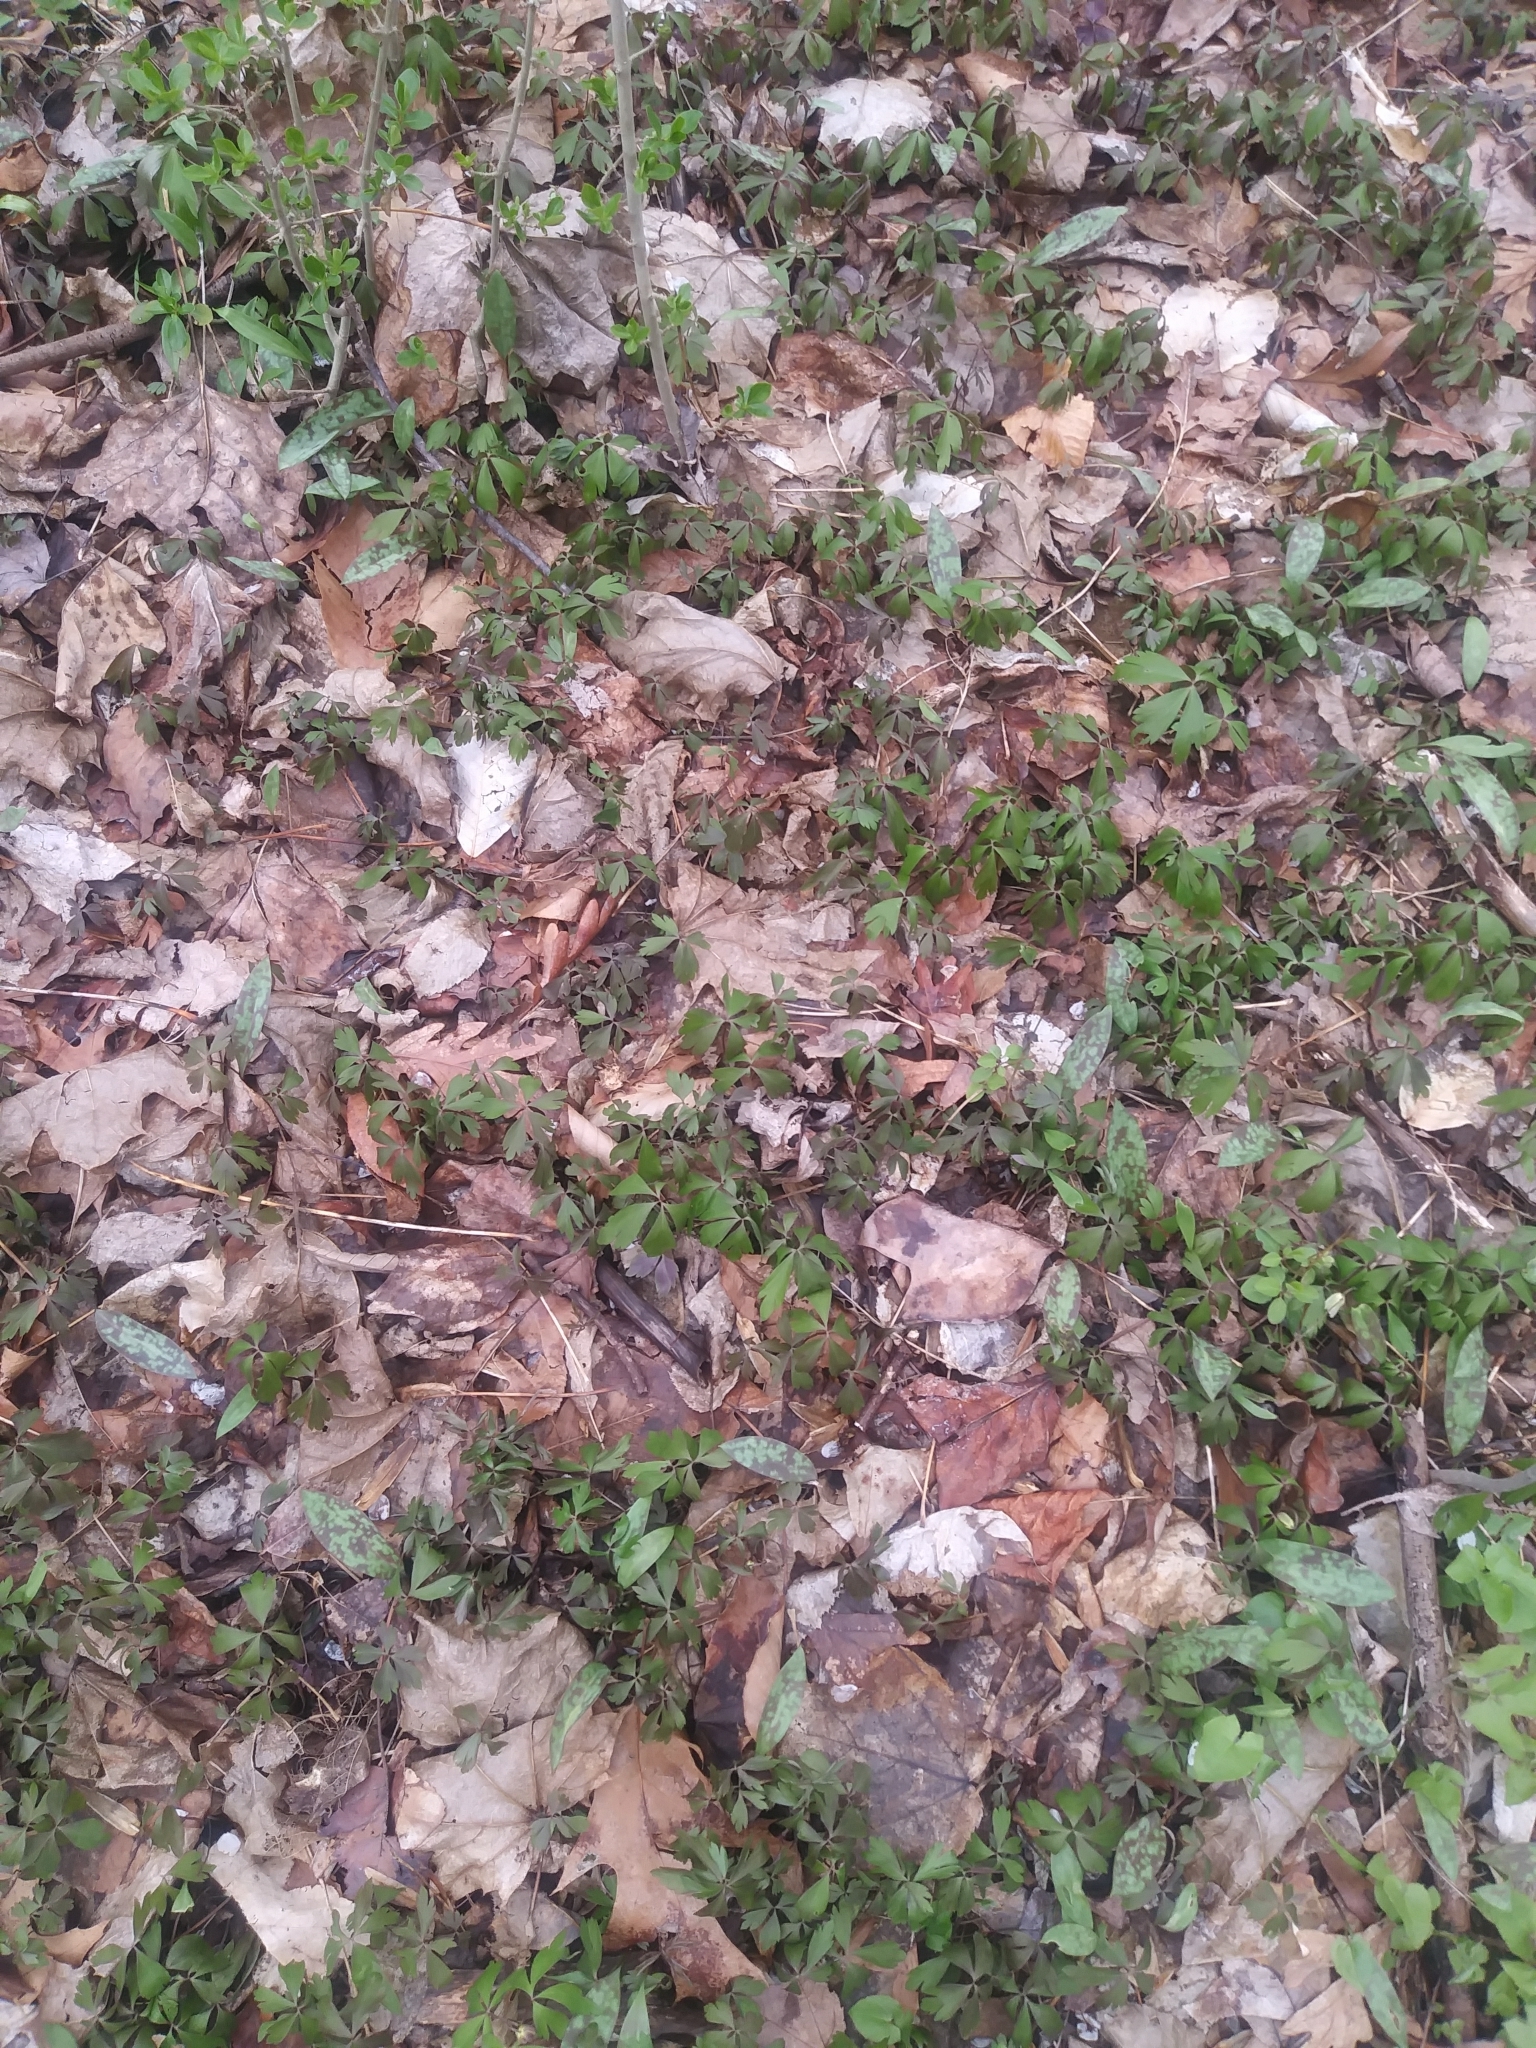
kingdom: Plantae
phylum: Tracheophyta
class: Magnoliopsida
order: Ranunculales
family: Ranunculaceae
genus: Anemone
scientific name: Anemone quinquefolia
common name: Wood anemone
